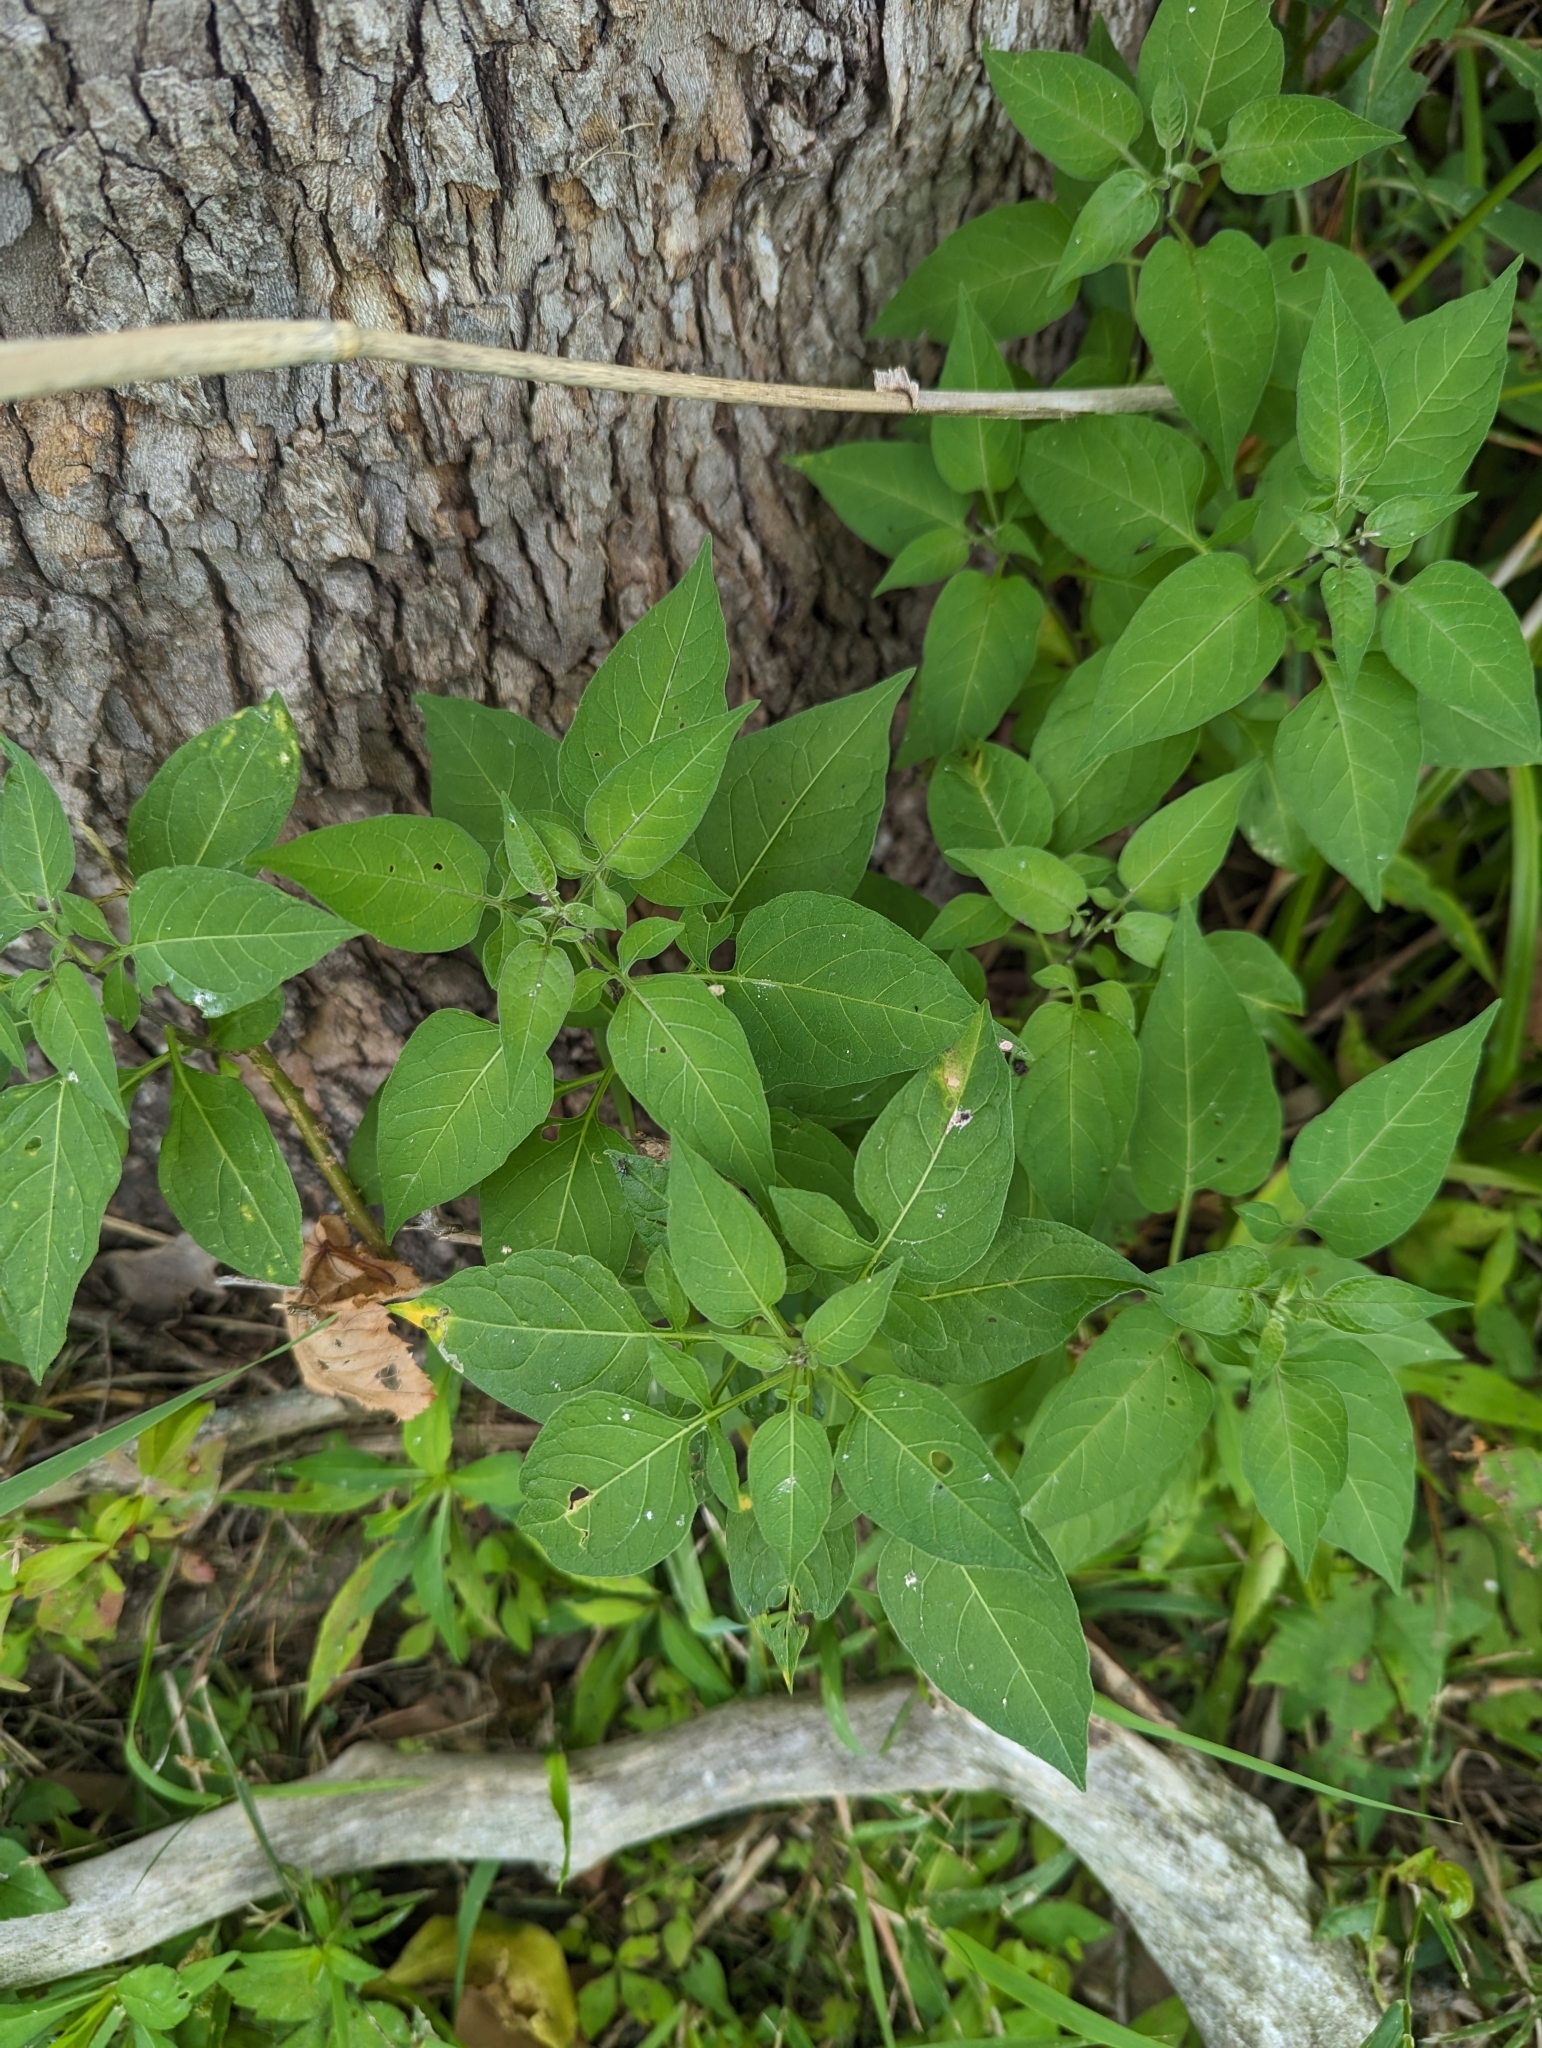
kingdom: Plantae
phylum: Tracheophyta
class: Magnoliopsida
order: Solanales
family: Solanaceae
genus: Solanum
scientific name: Solanum dulcamara
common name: Climbing nightshade
